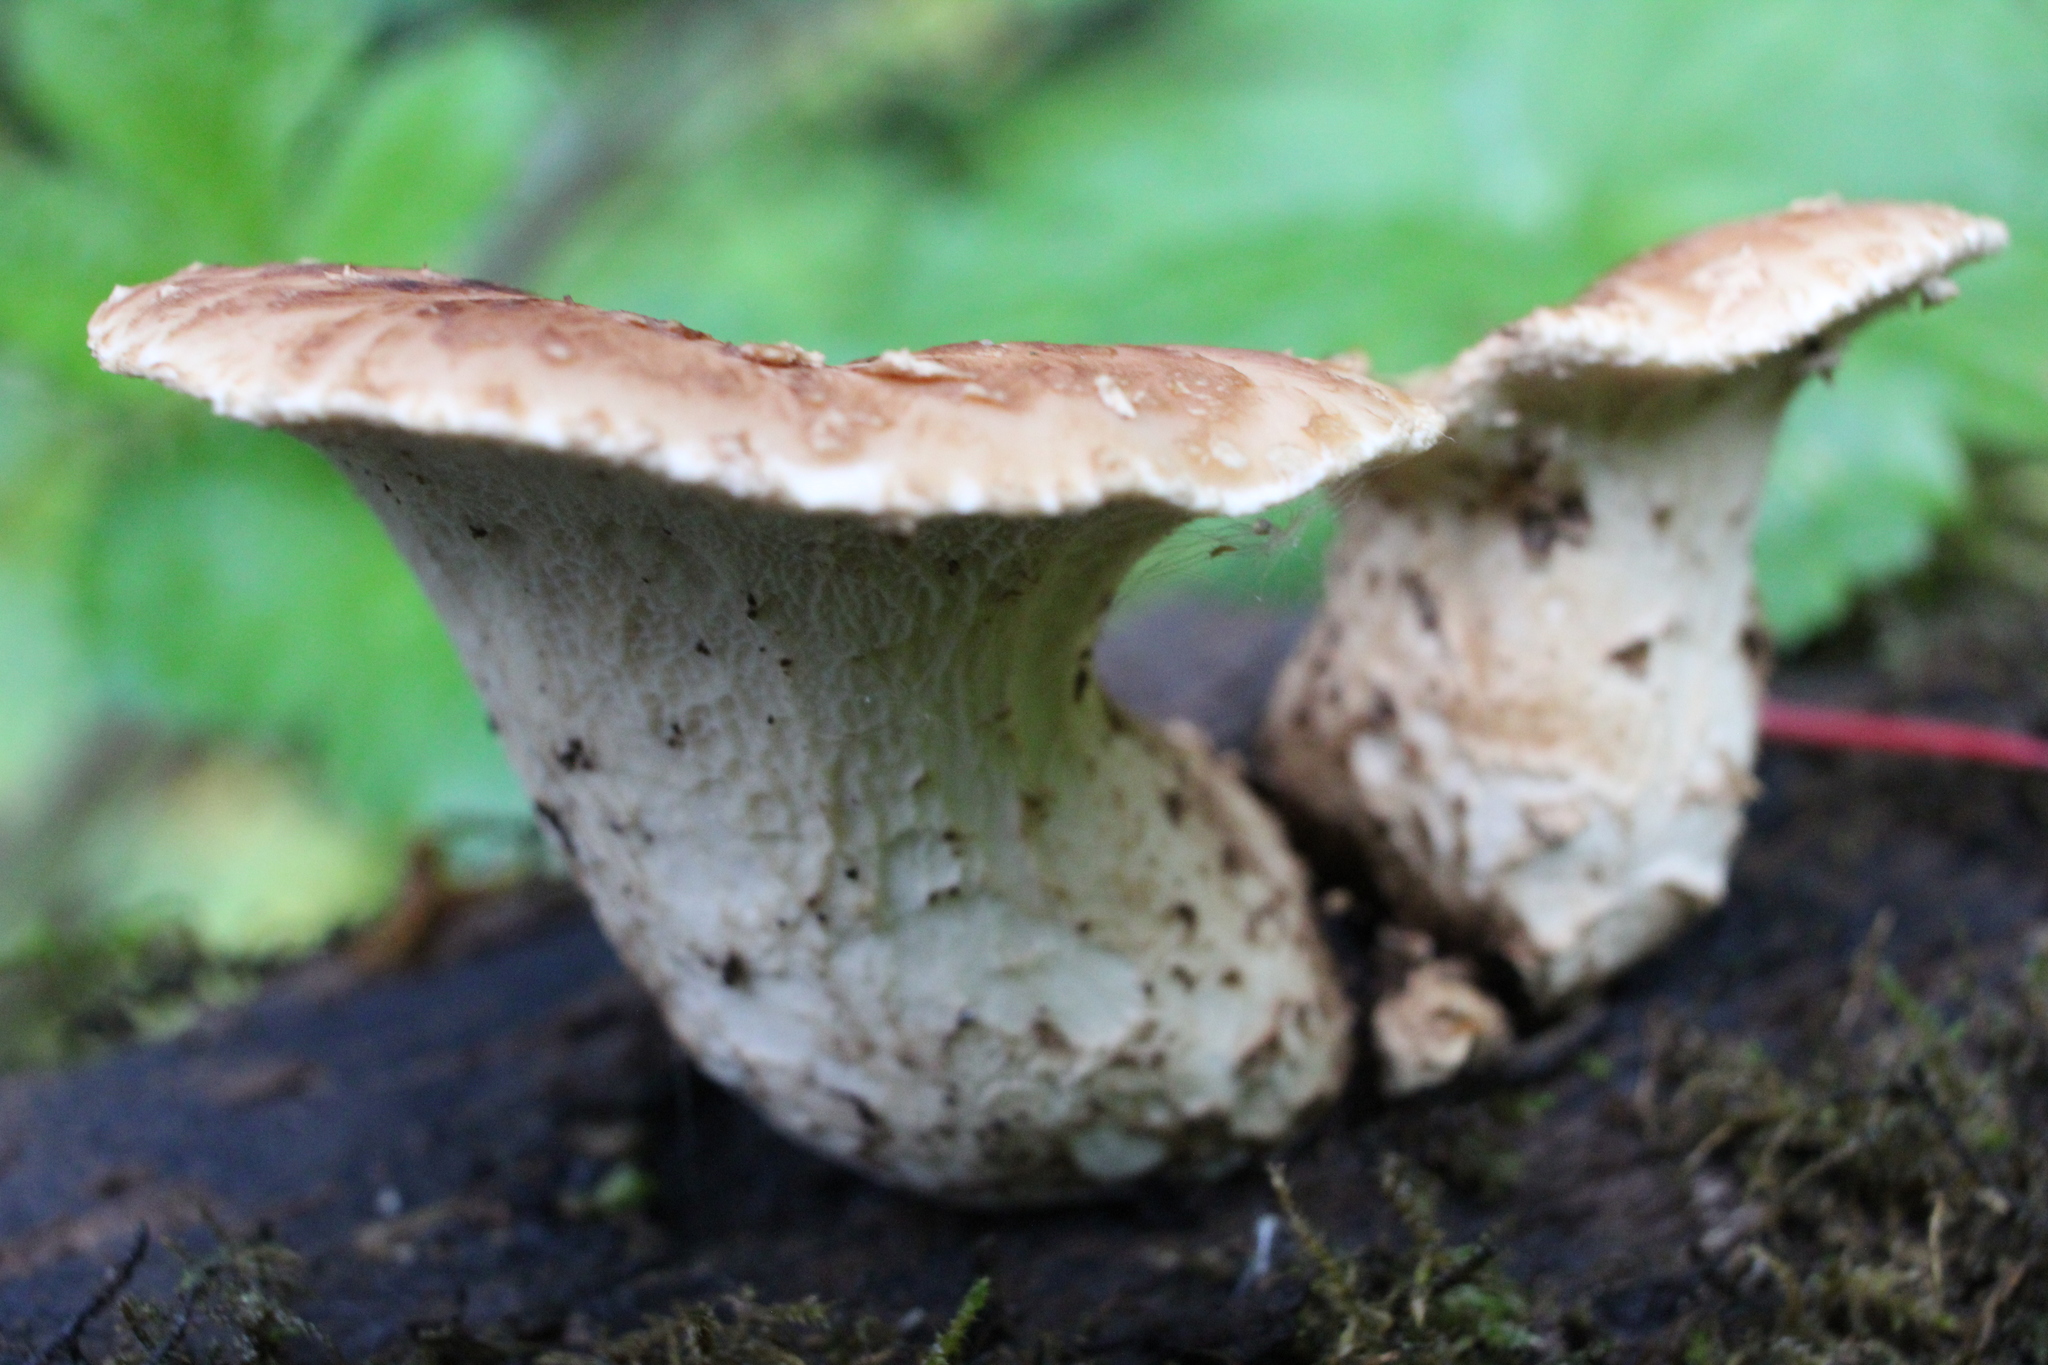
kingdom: Fungi
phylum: Basidiomycota
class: Agaricomycetes
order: Polyporales
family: Polyporaceae
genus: Cerioporus
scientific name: Cerioporus squamosus
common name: Dryad's saddle
